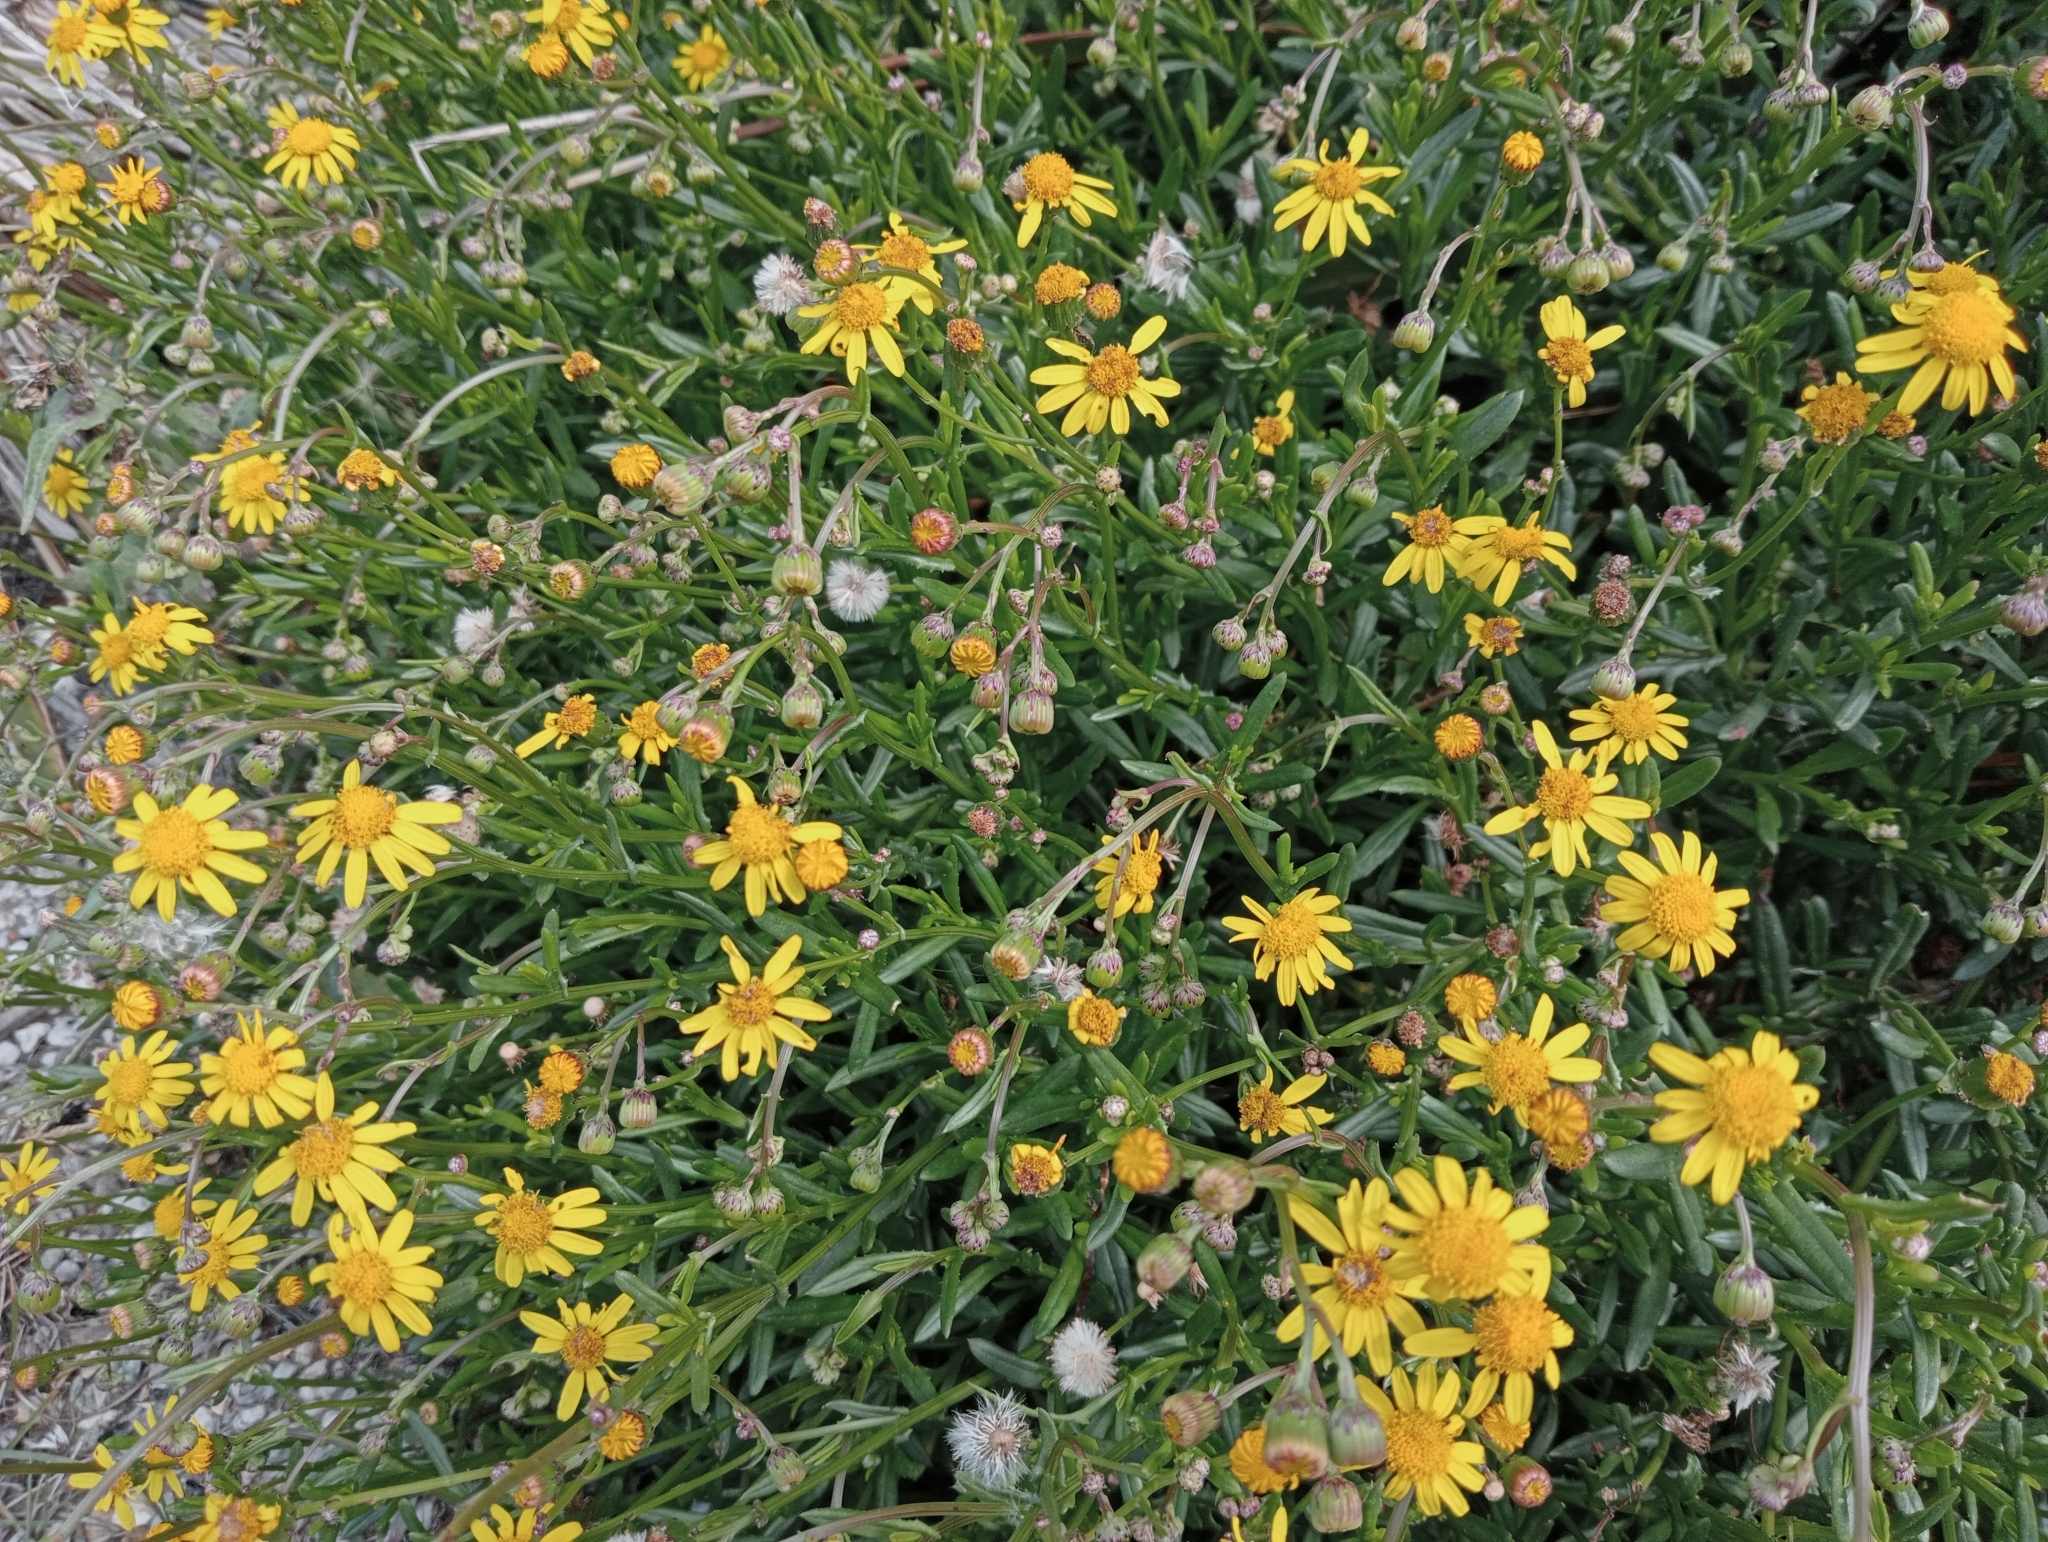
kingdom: Plantae
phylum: Tracheophyta
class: Magnoliopsida
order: Asterales
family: Asteraceae
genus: Senecio
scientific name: Senecio skirrhodon
